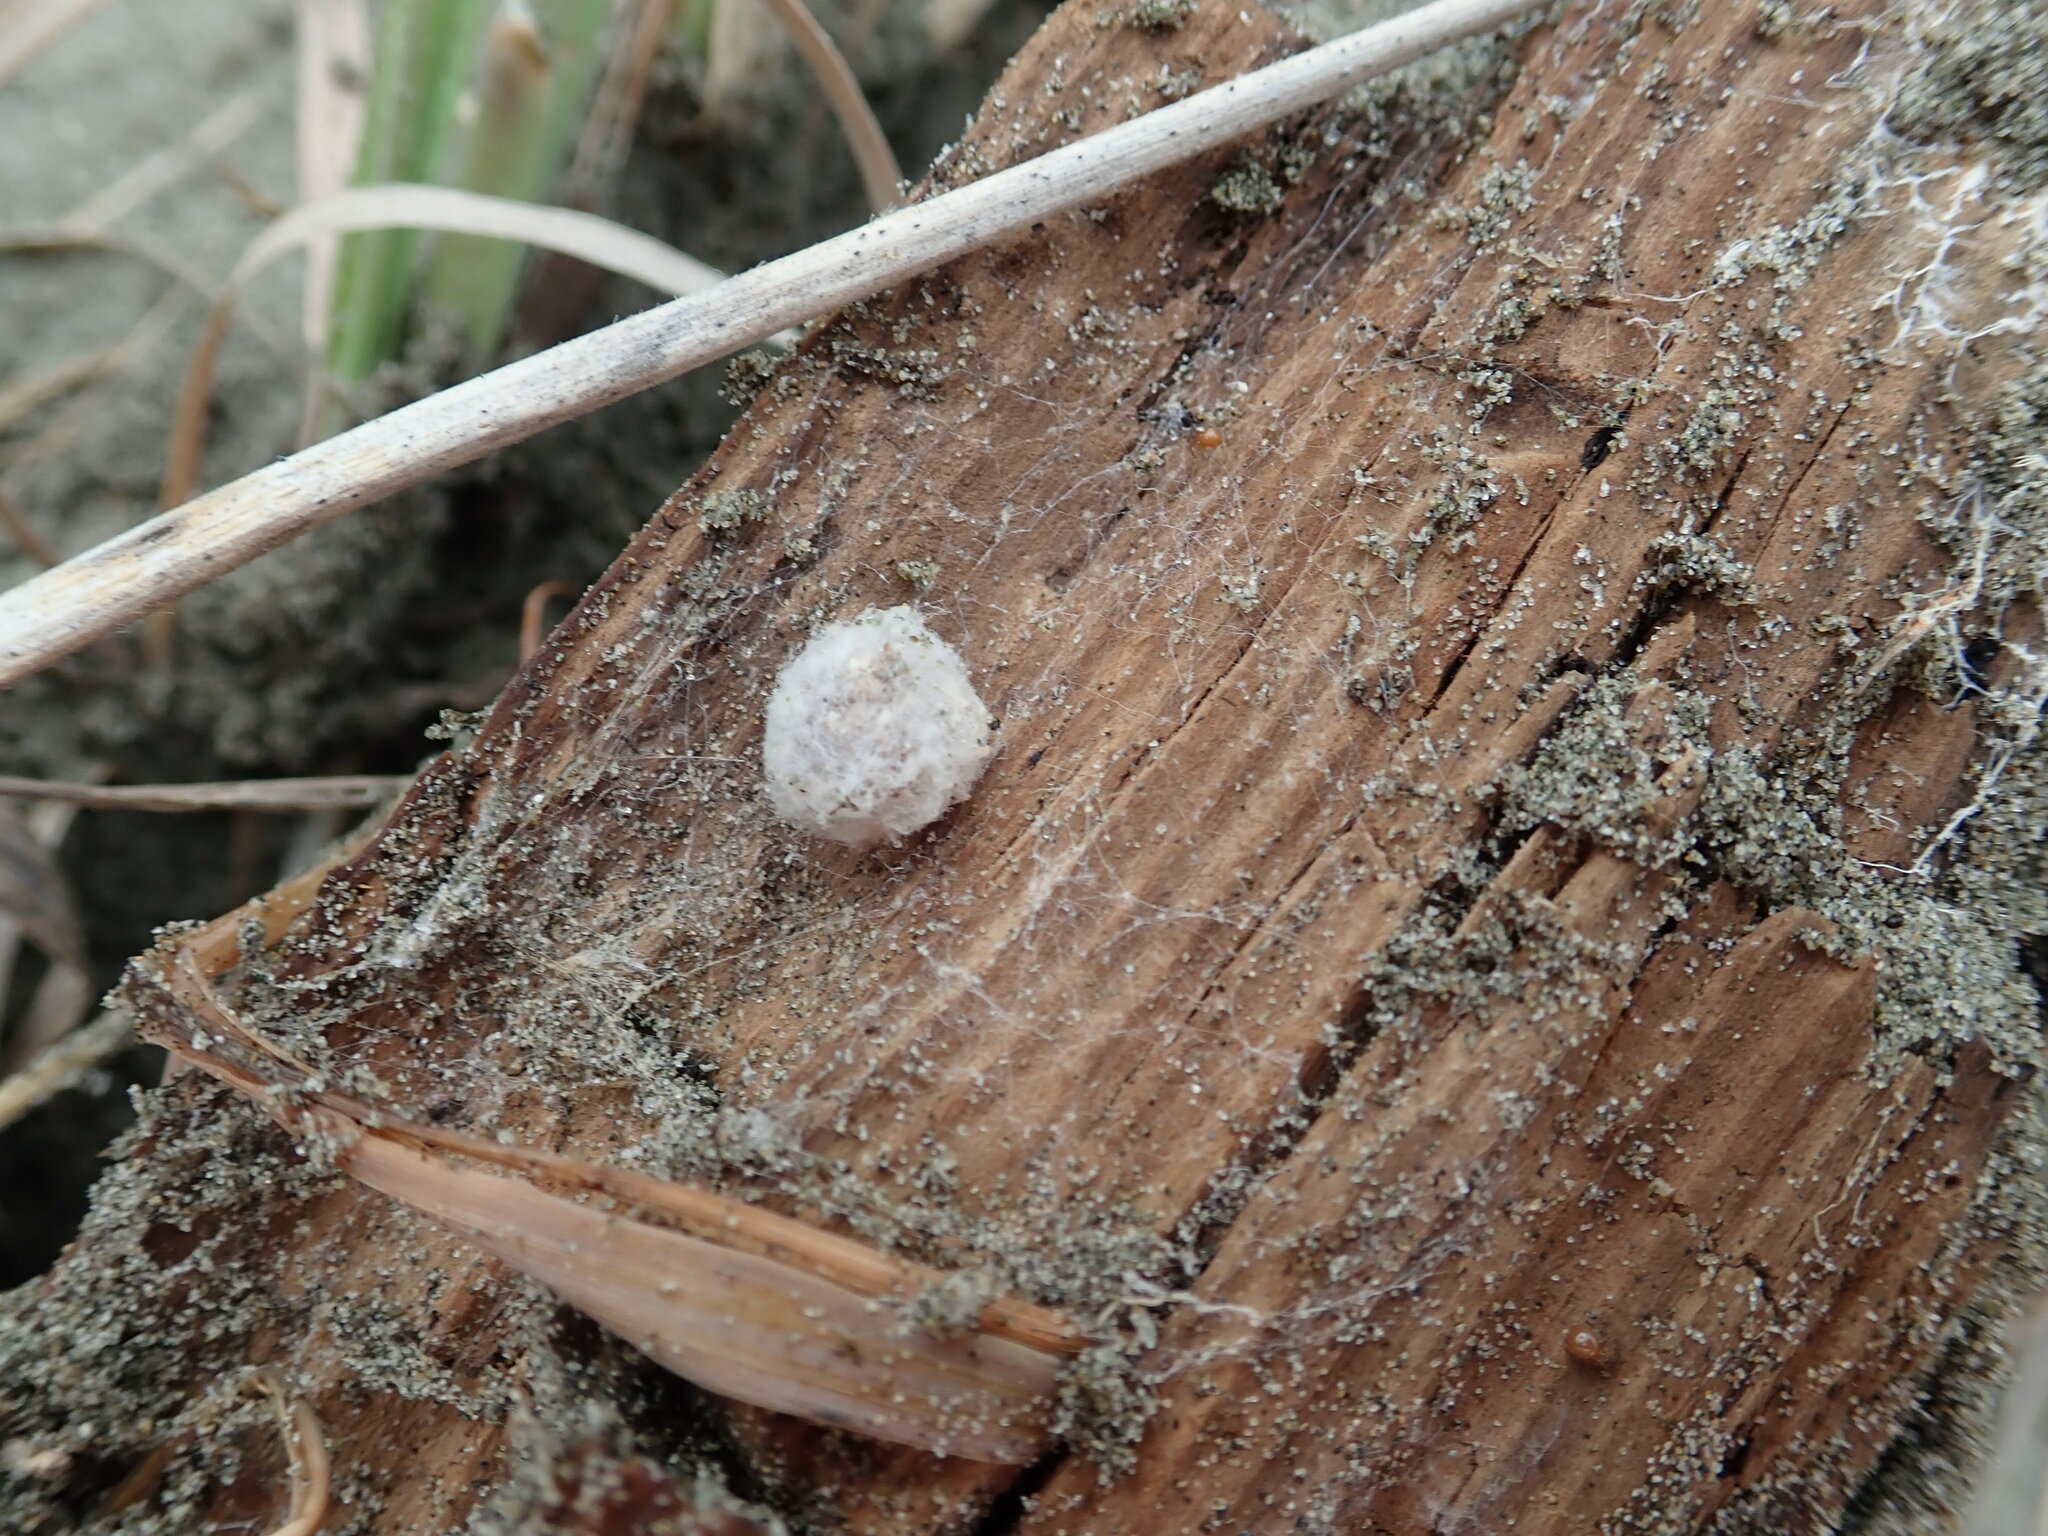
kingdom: Animalia
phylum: Arthropoda
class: Arachnida
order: Araneae
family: Theridiidae
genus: Steatoda
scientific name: Steatoda capensis
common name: Cobweb weaver
